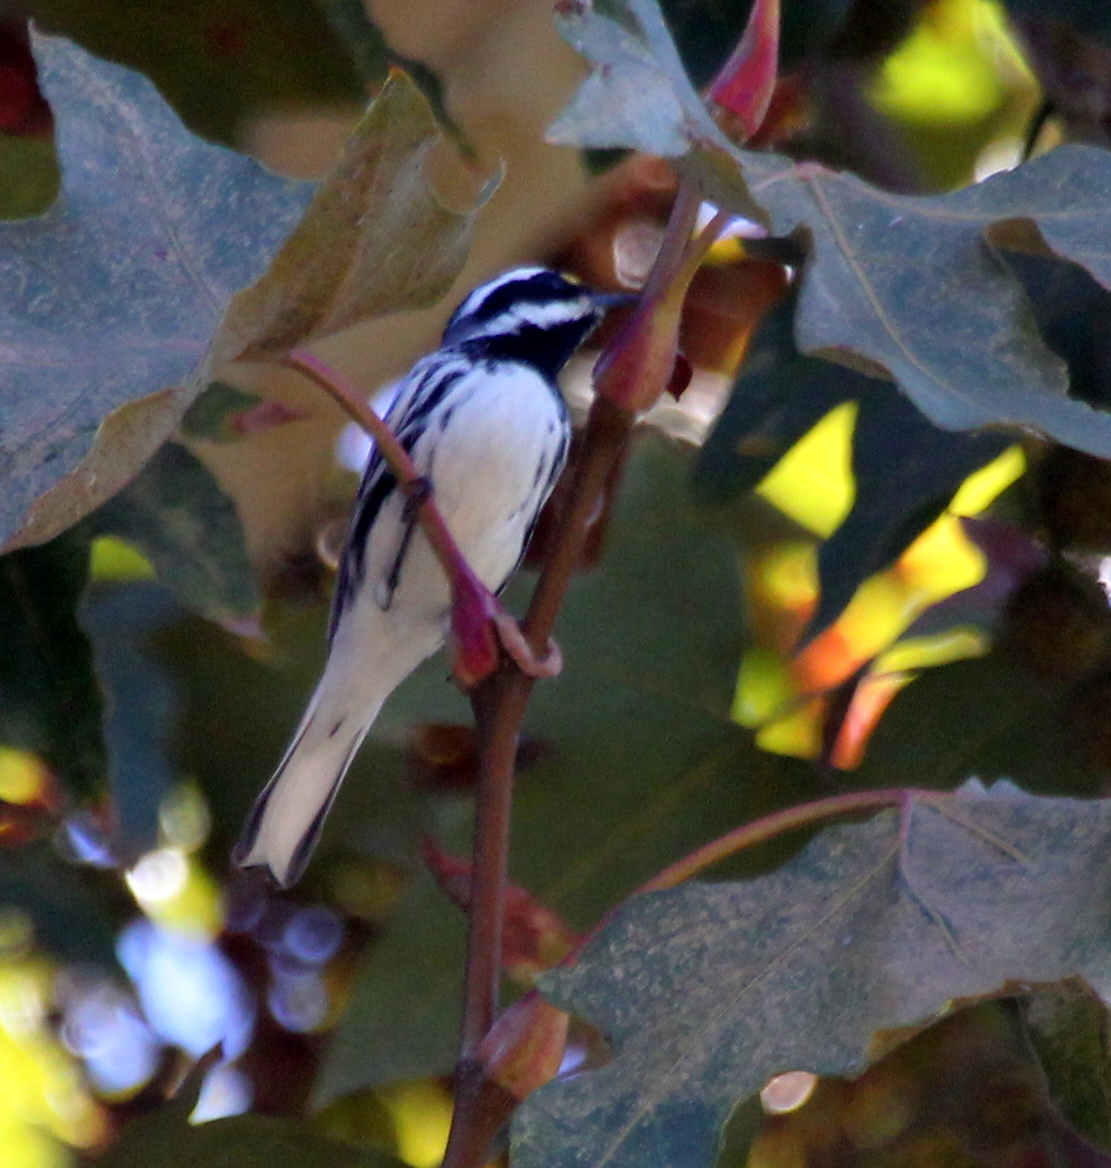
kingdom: Animalia
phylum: Chordata
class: Aves
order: Passeriformes
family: Parulidae
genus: Setophaga
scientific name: Setophaga nigrescens
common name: Black-throated gray warbler
